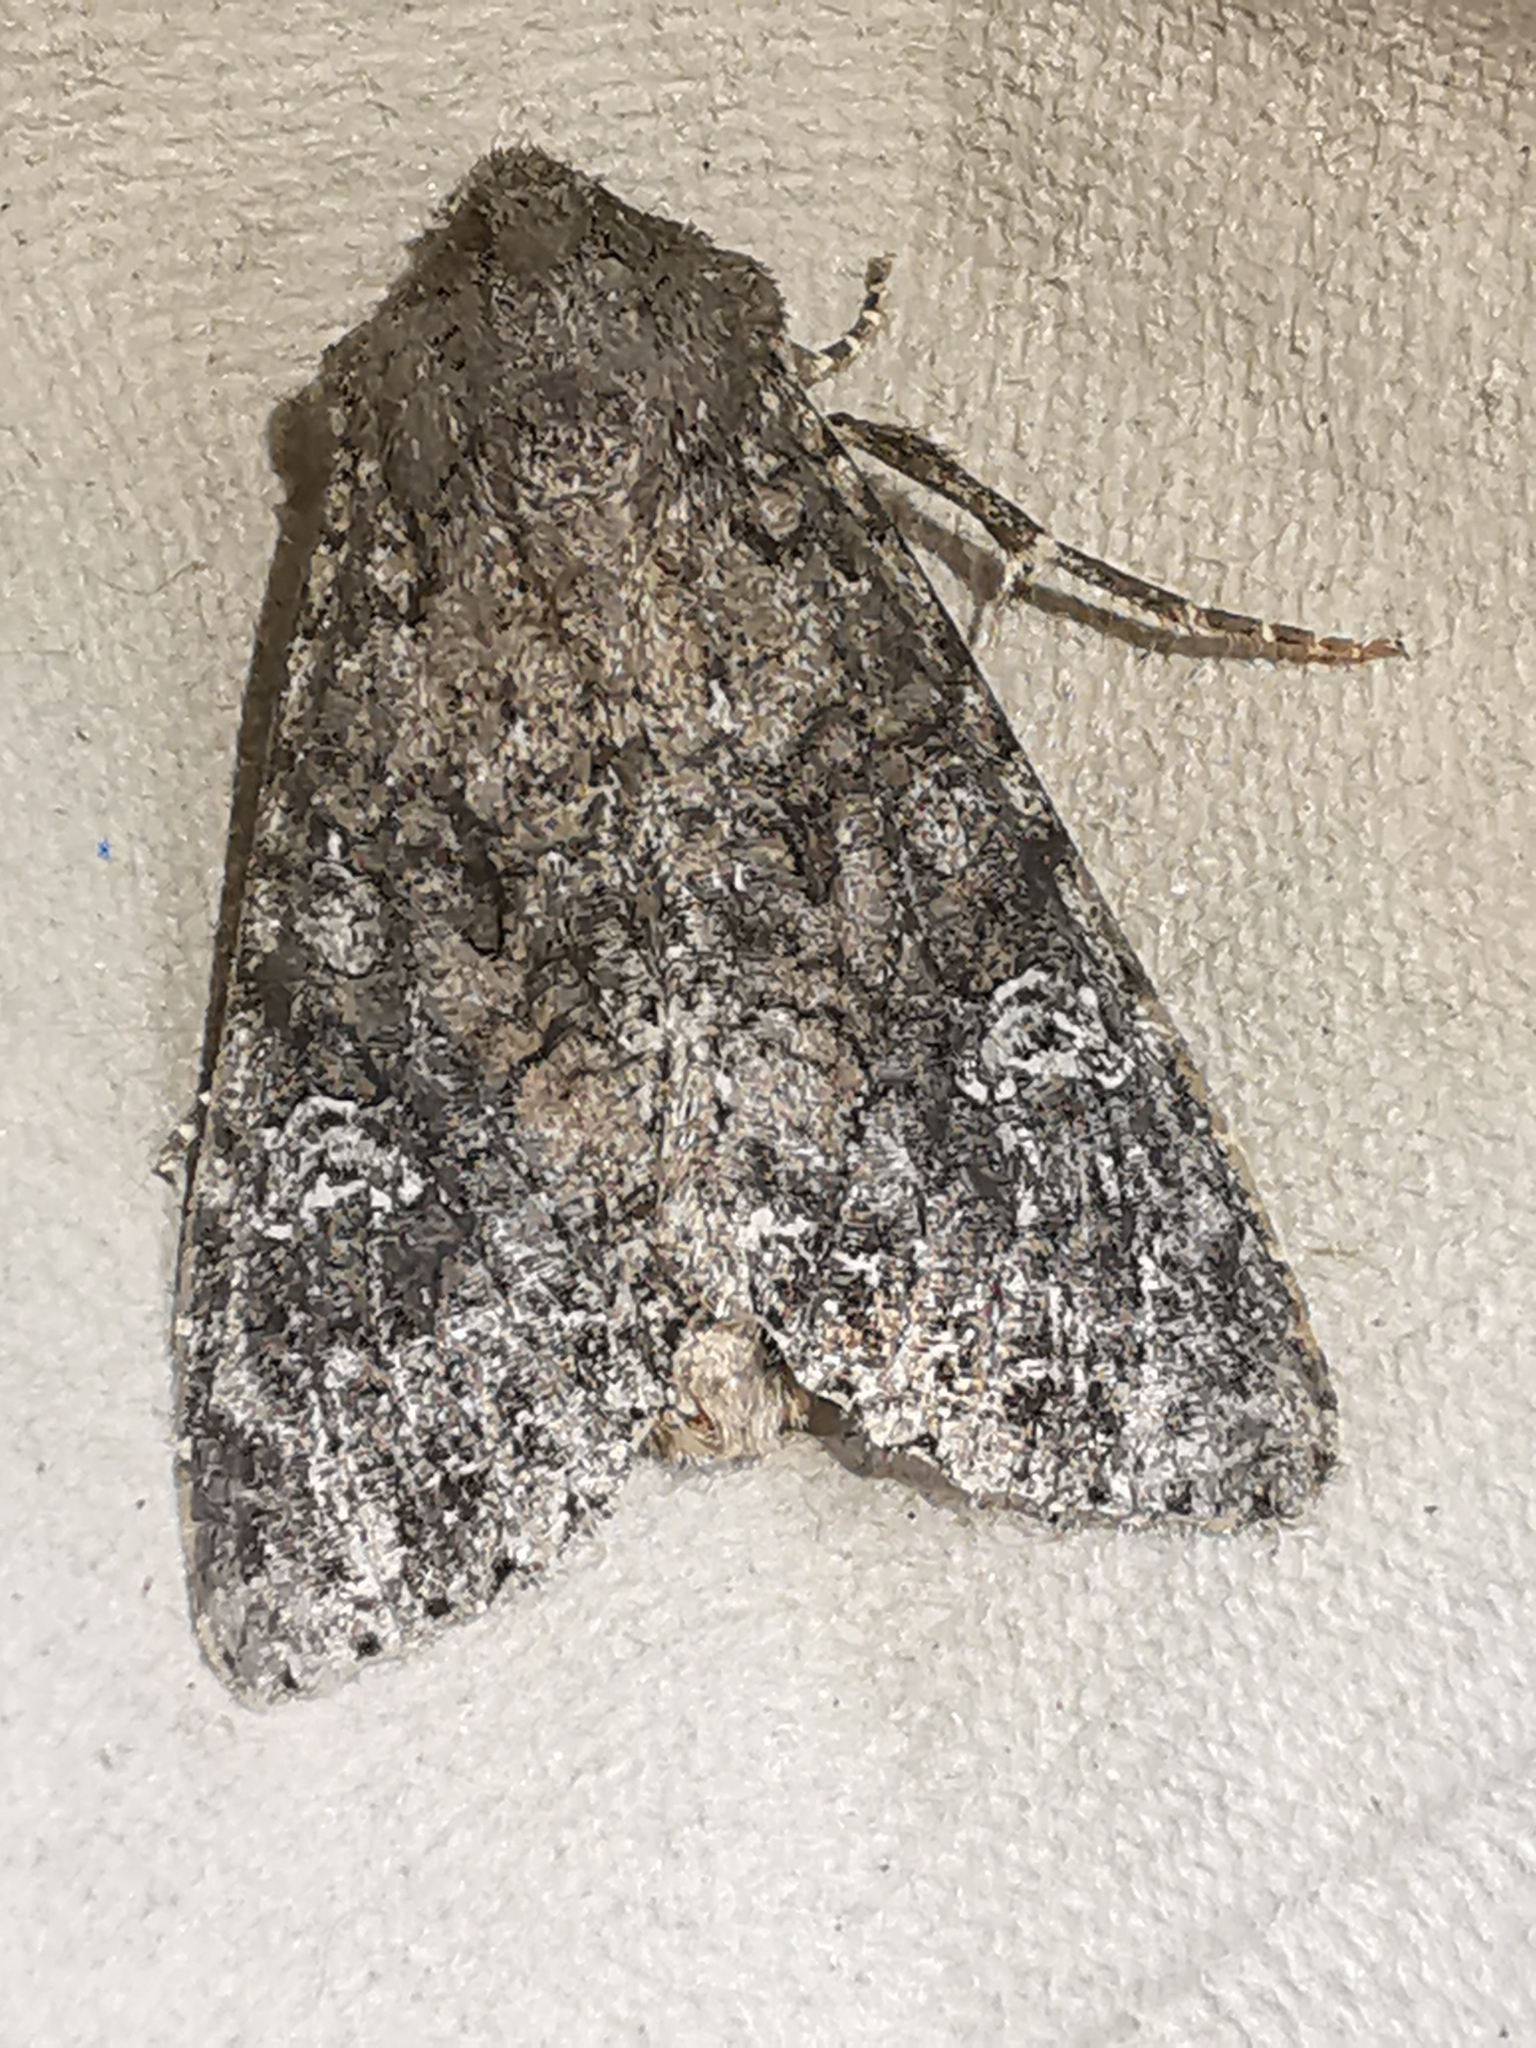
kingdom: Animalia
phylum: Arthropoda
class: Insecta
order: Lepidoptera
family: Noctuidae
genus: Mamestra
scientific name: Mamestra brassicae
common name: Cabbage moth
